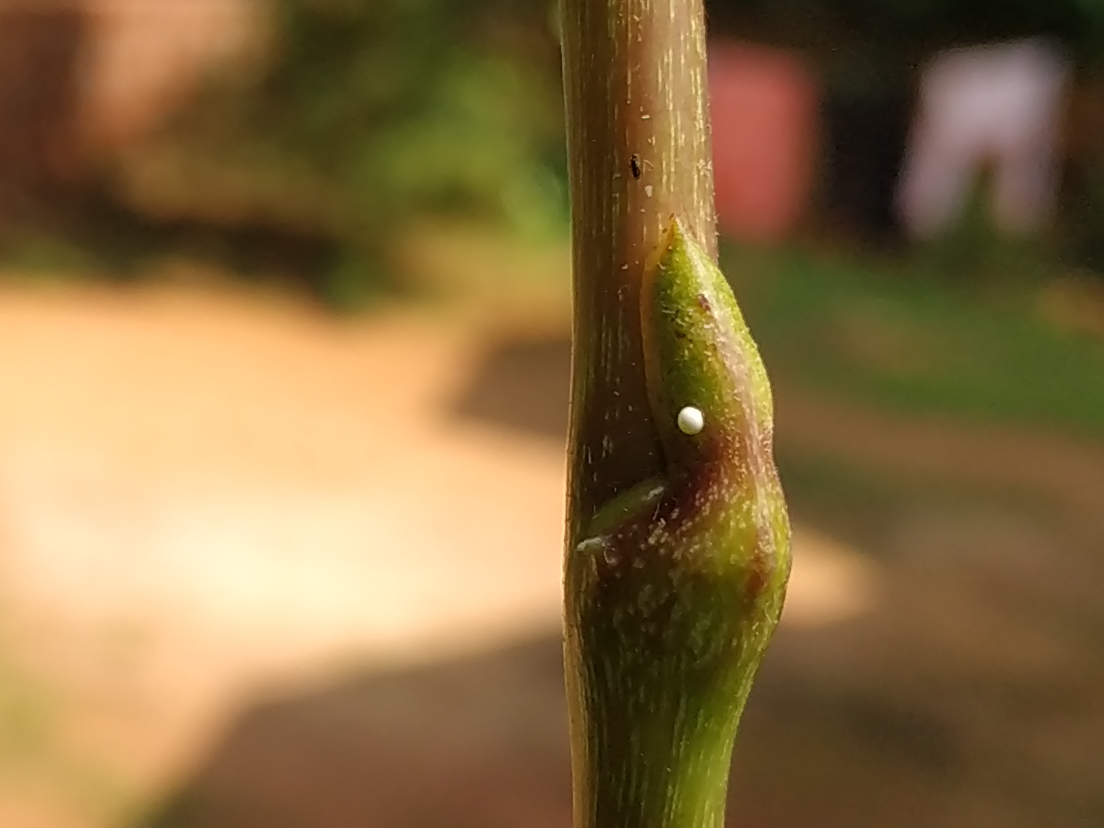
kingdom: Animalia
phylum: Arthropoda
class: Insecta
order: Lepidoptera
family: Lycaenidae
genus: Loxura
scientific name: Loxura atymnus
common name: Common yamfly
